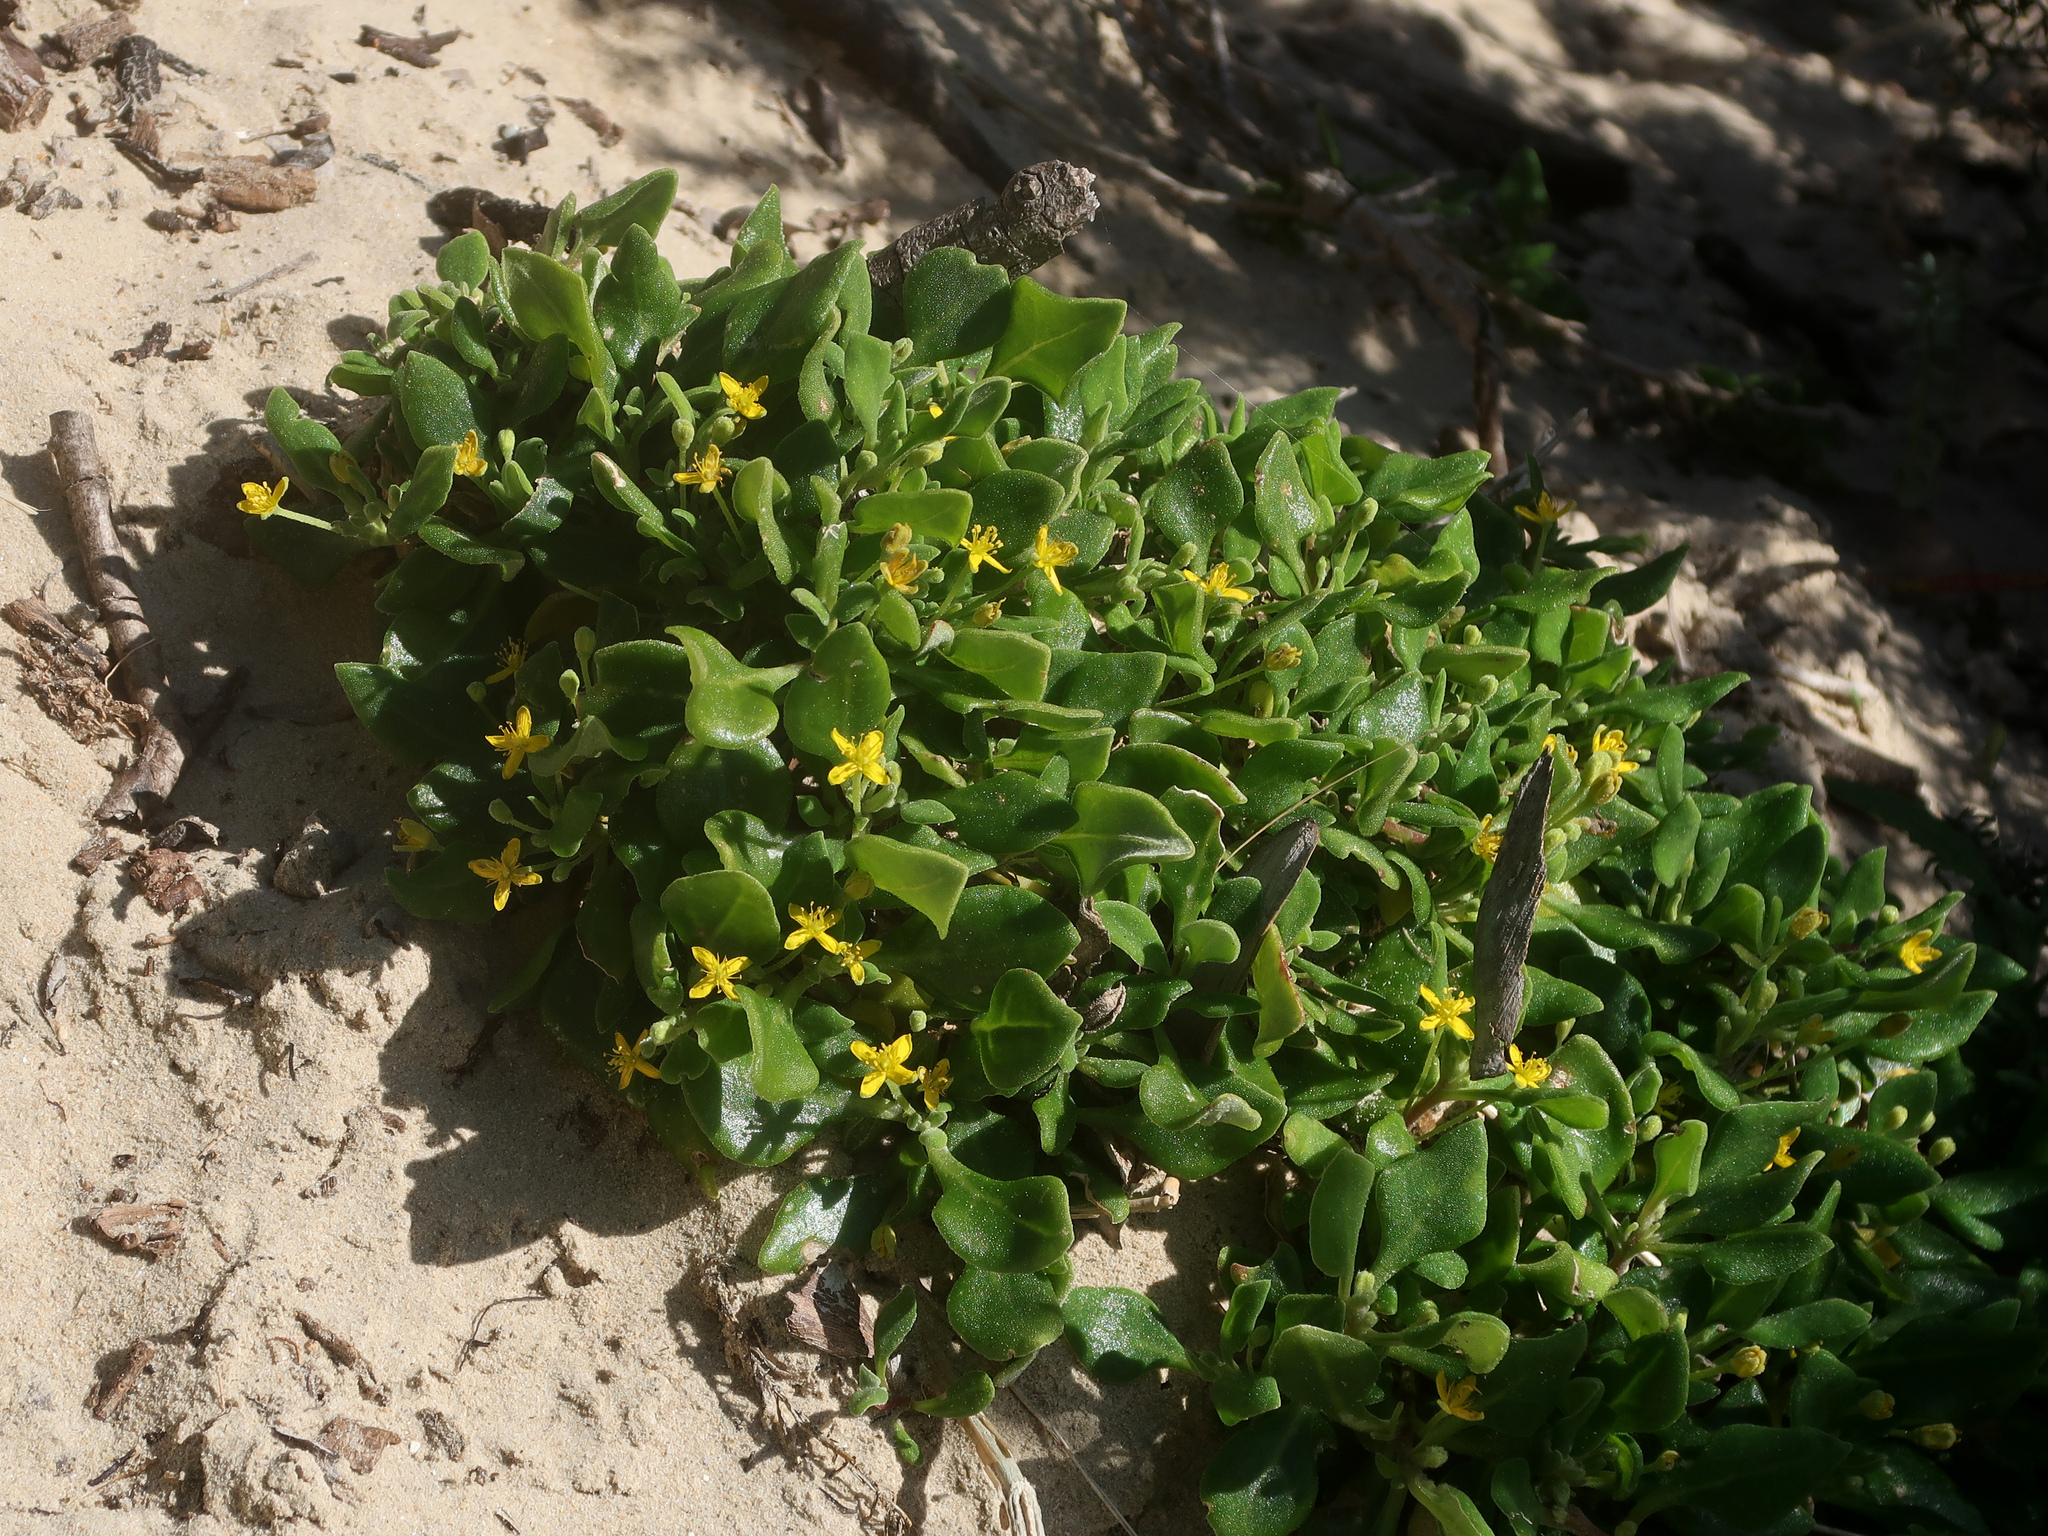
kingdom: Plantae
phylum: Tracheophyta
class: Magnoliopsida
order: Caryophyllales
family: Aizoaceae
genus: Tetragonia
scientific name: Tetragonia implexicoma
